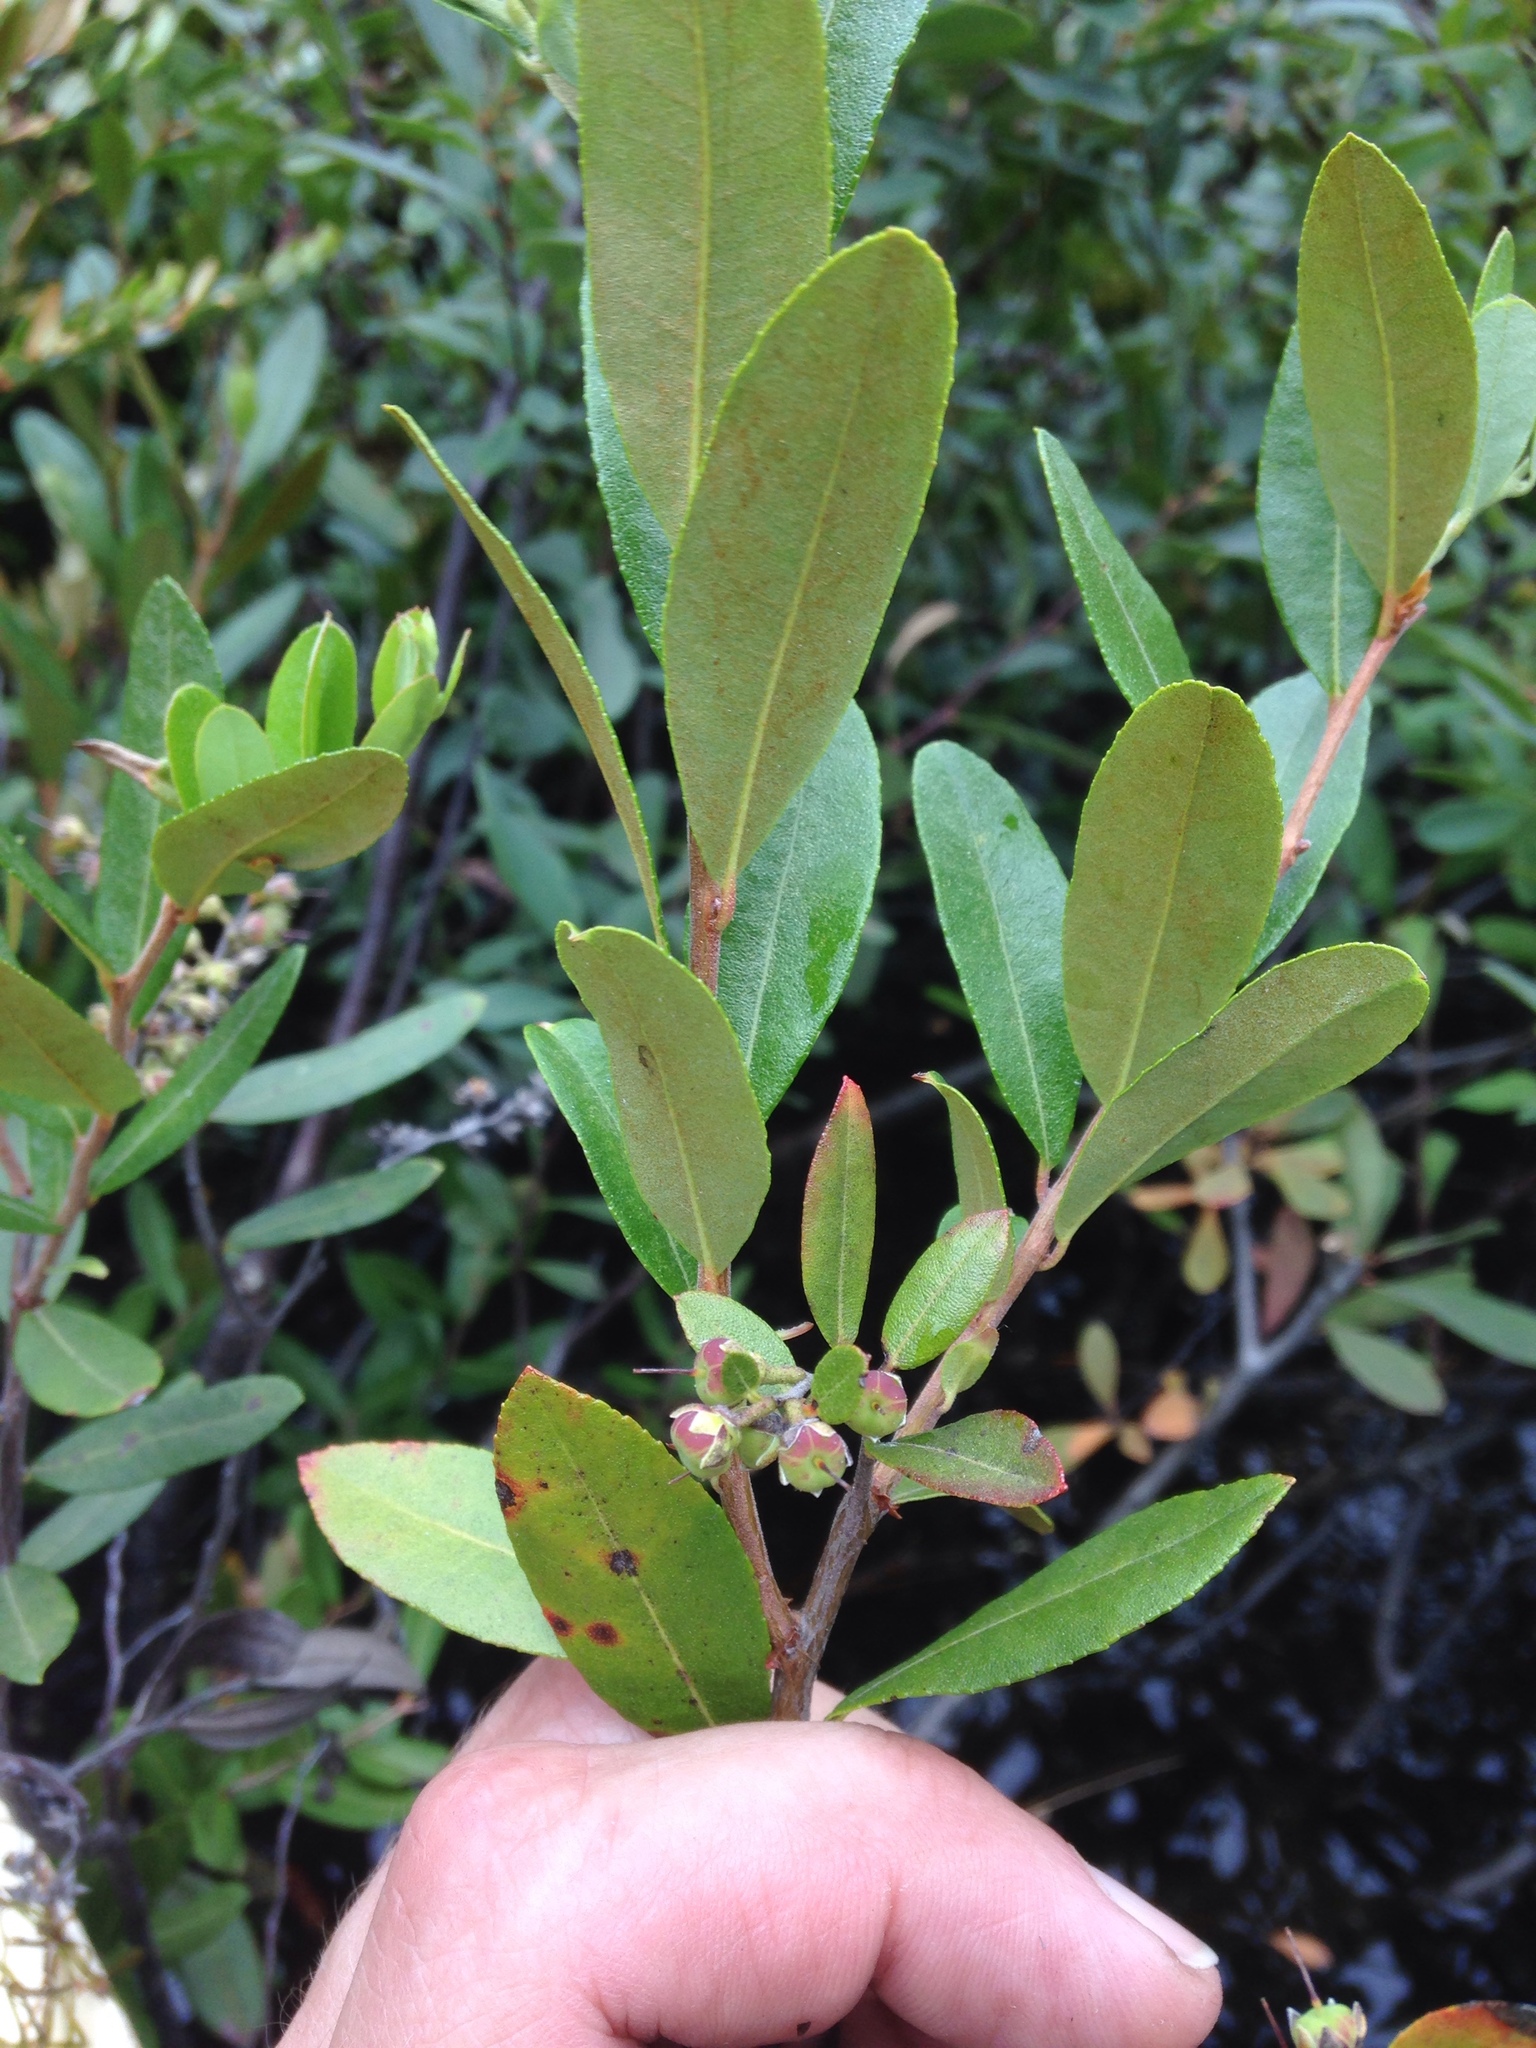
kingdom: Plantae
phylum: Tracheophyta
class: Magnoliopsida
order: Ericales
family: Ericaceae
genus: Chamaedaphne
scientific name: Chamaedaphne calyculata
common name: Leatherleaf
